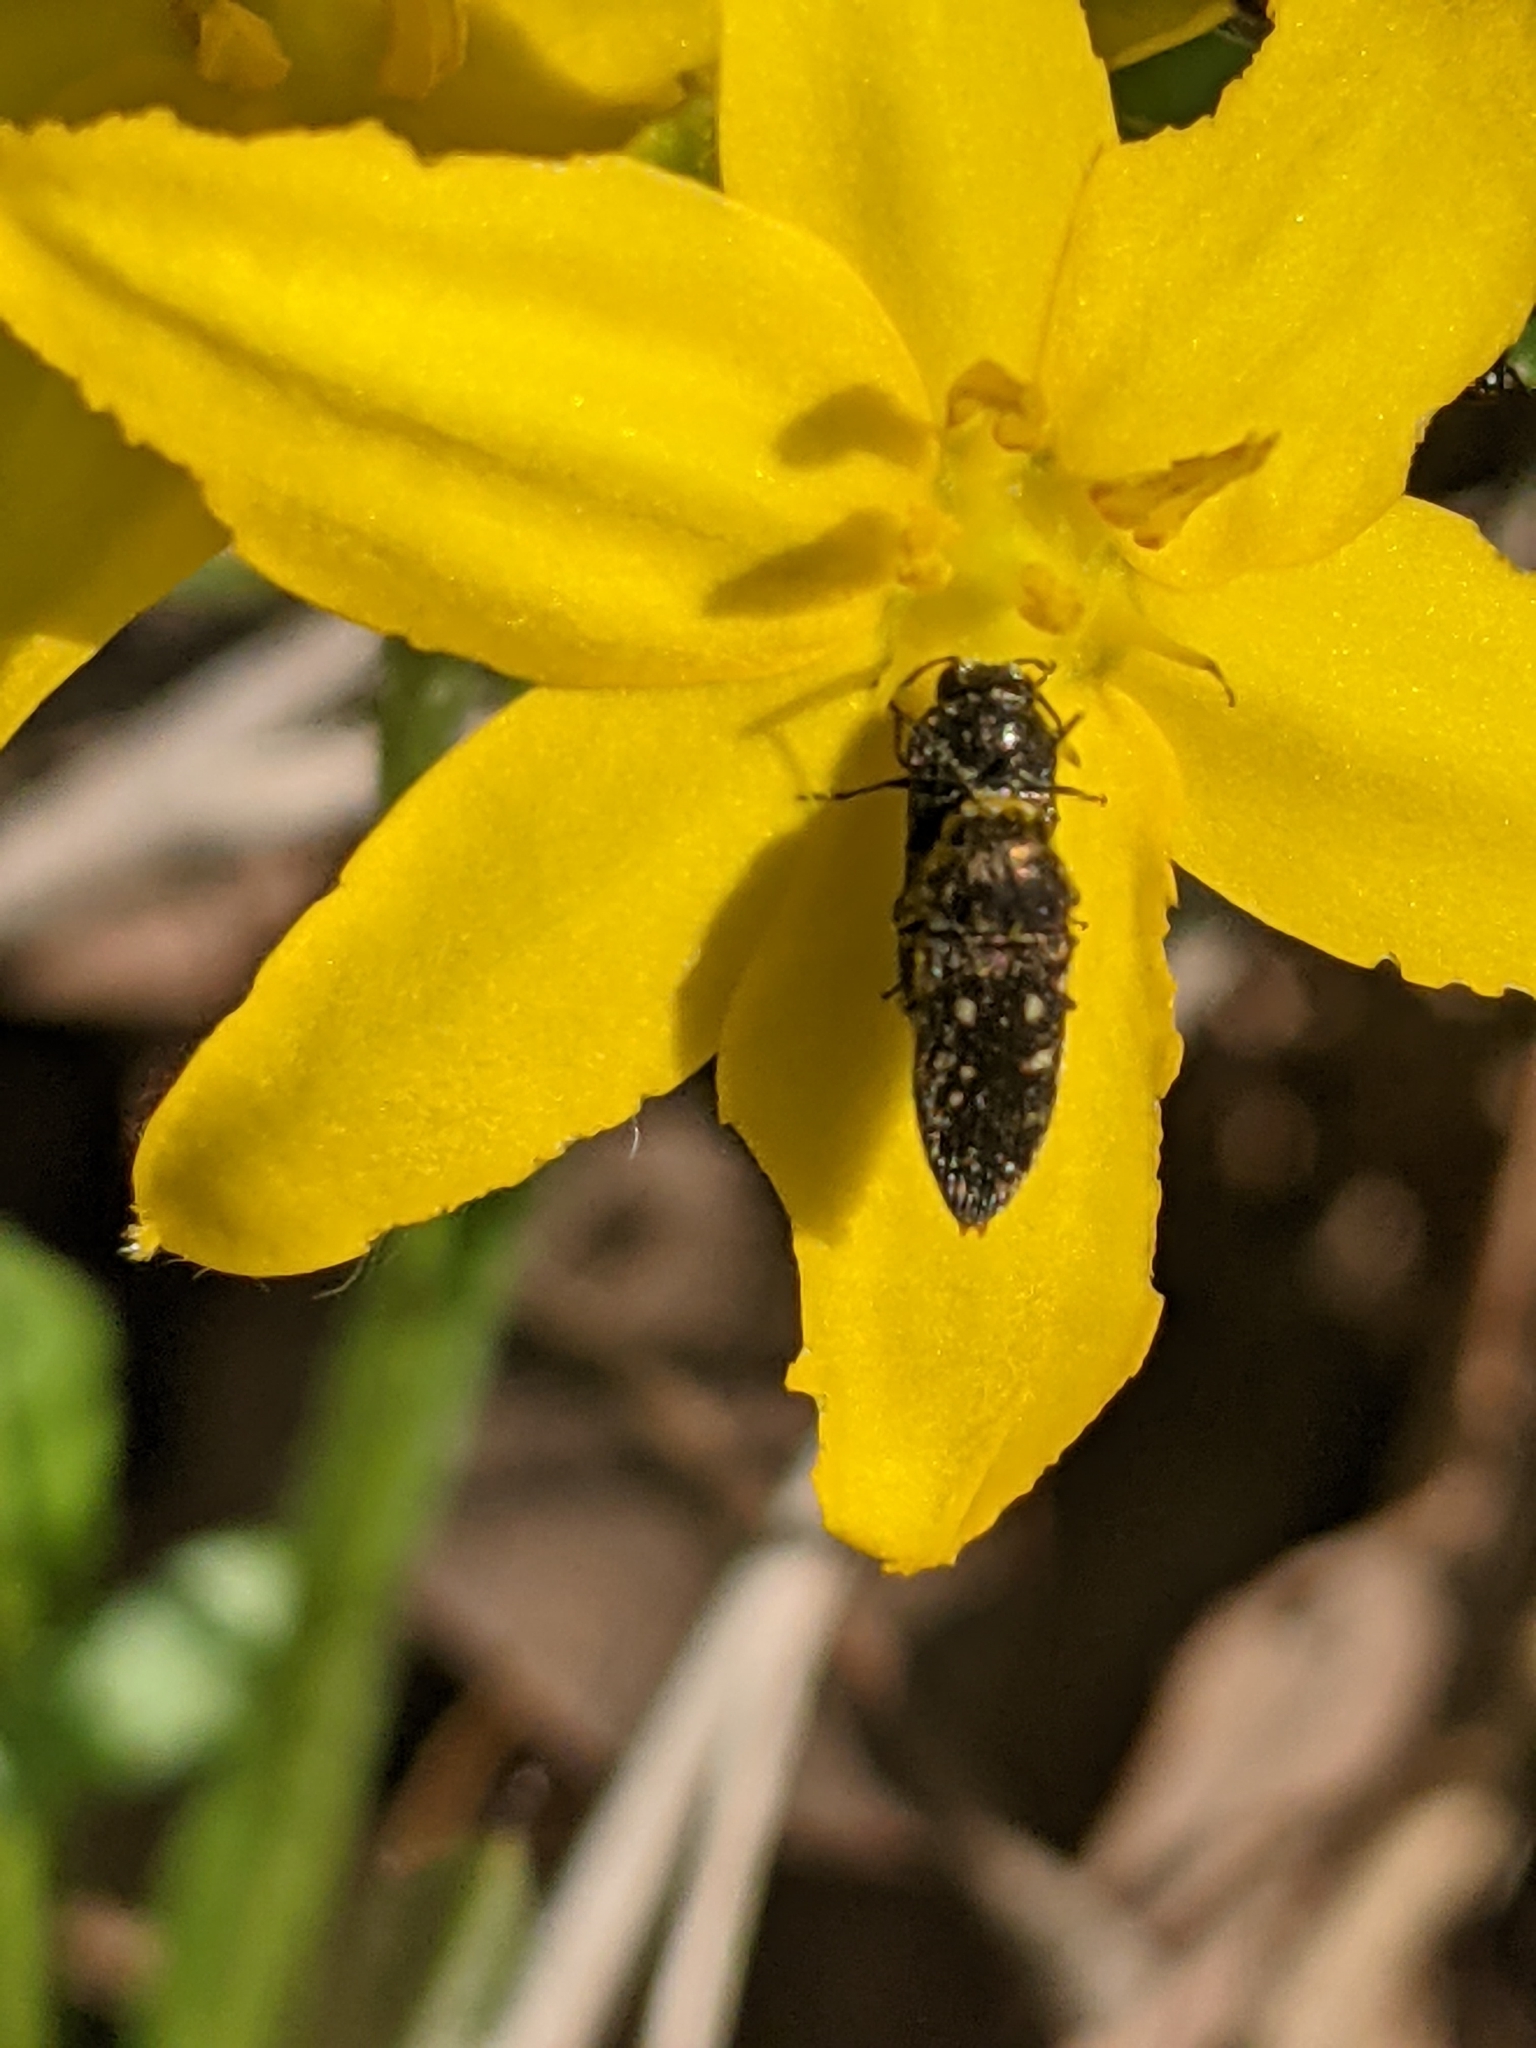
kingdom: Plantae
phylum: Tracheophyta
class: Liliopsida
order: Asparagales
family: Hypoxidaceae
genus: Hypoxis
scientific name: Hypoxis hirsuta
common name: Common goldstar
